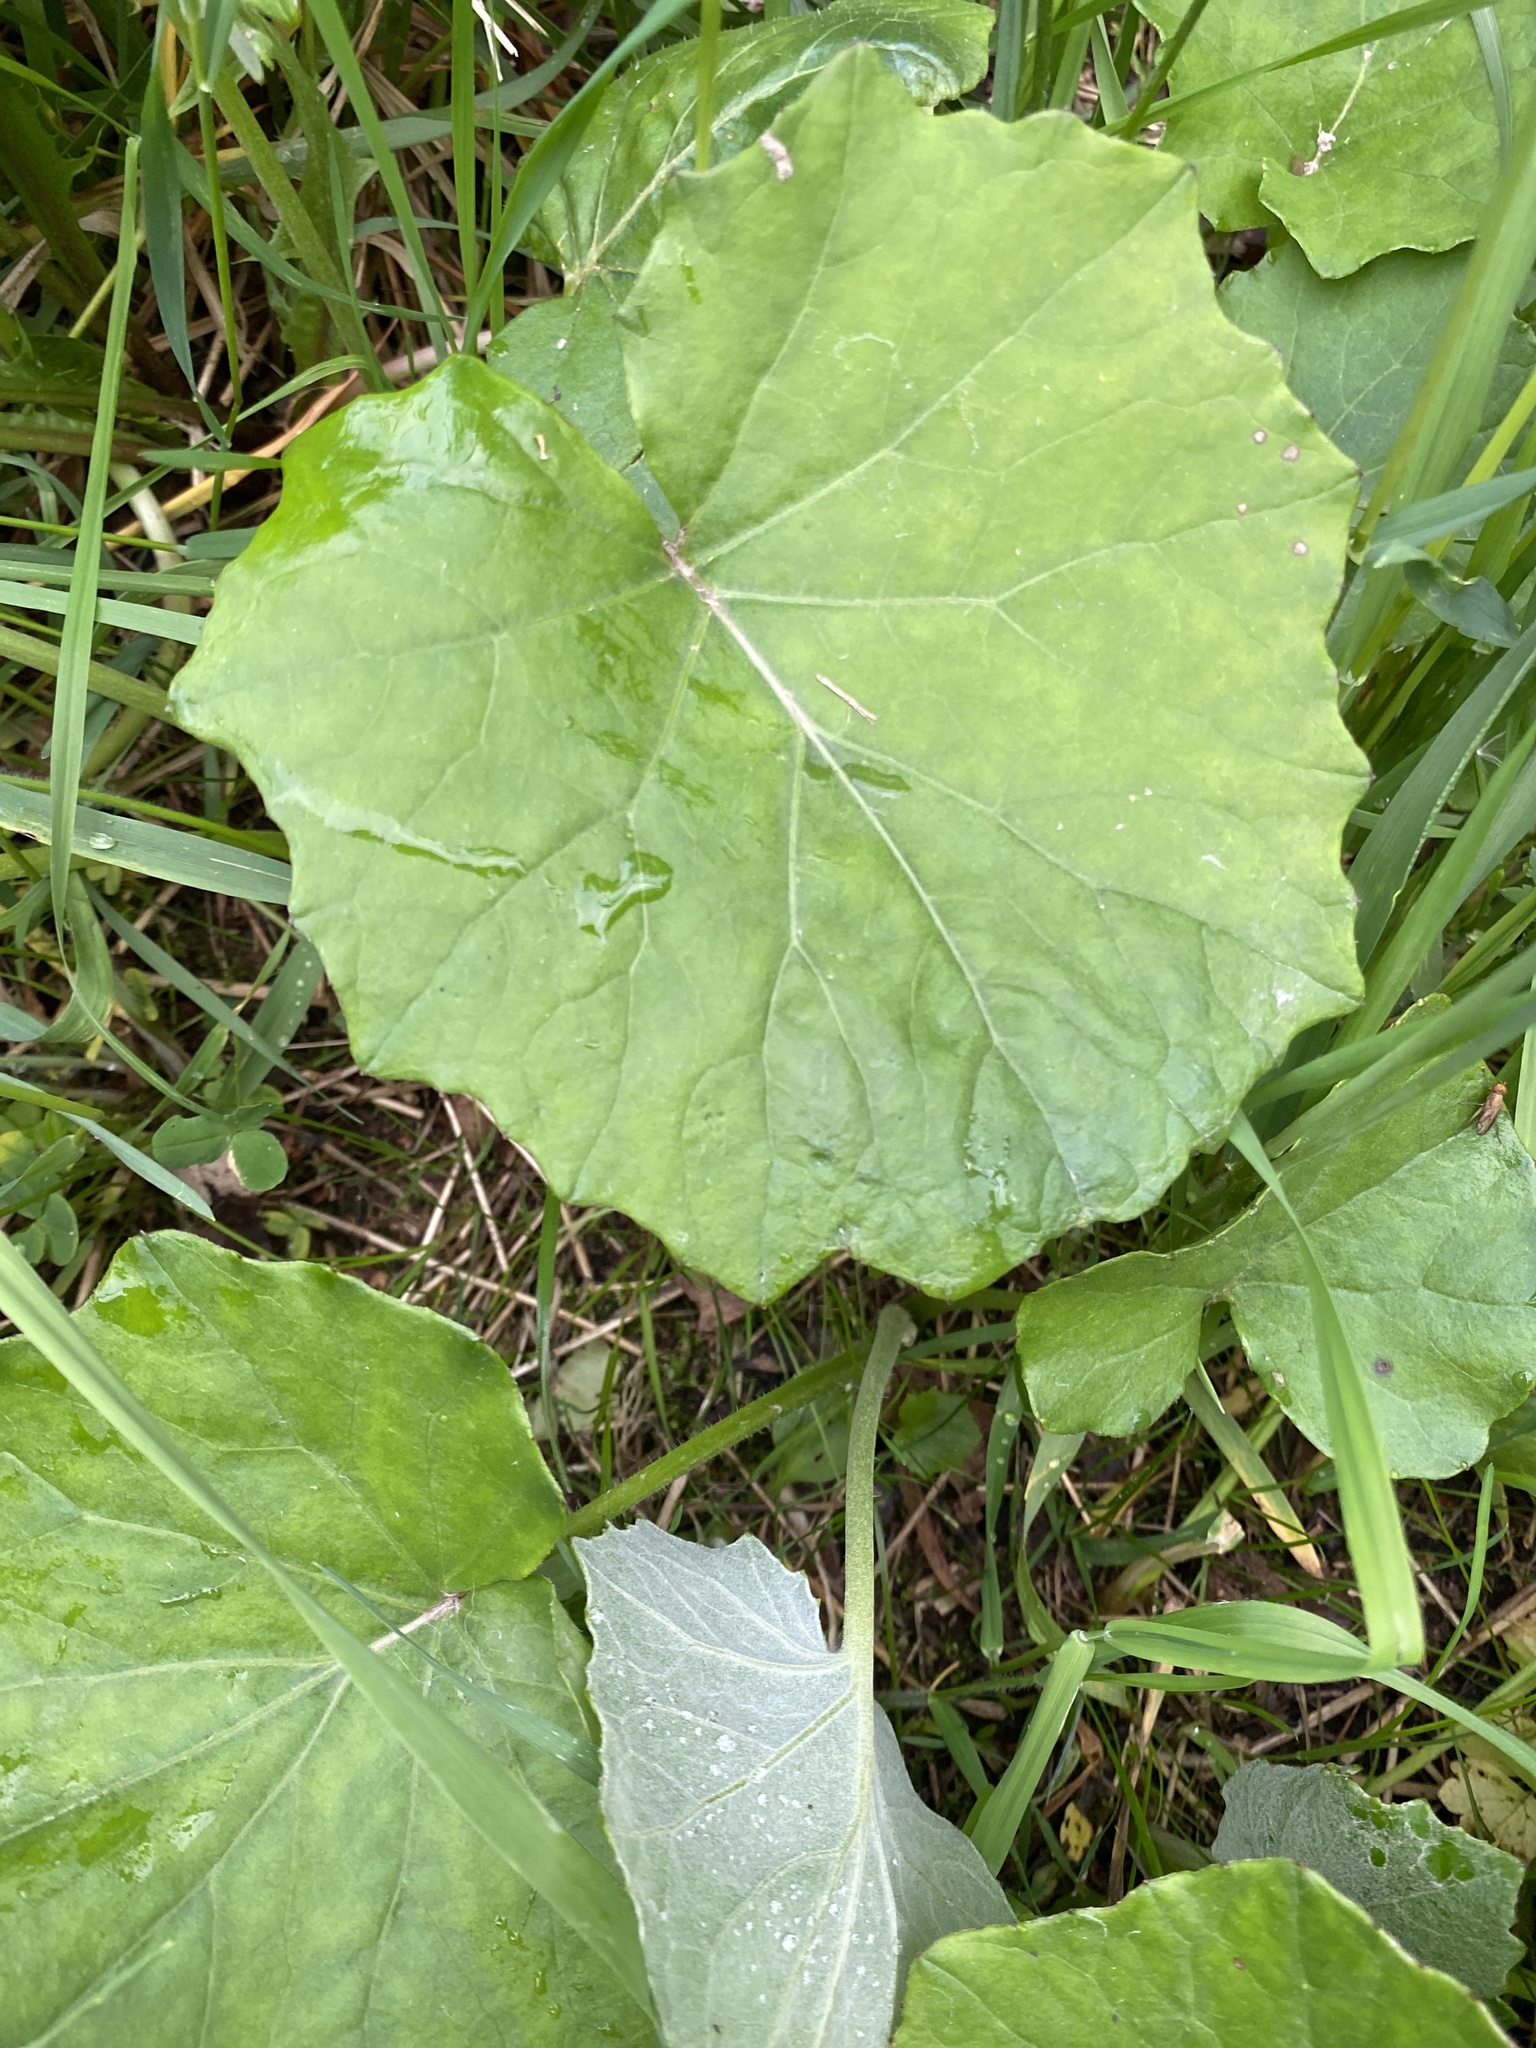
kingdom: Plantae
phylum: Tracheophyta
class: Magnoliopsida
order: Asterales
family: Asteraceae
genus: Tussilago
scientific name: Tussilago farfara
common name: Coltsfoot
